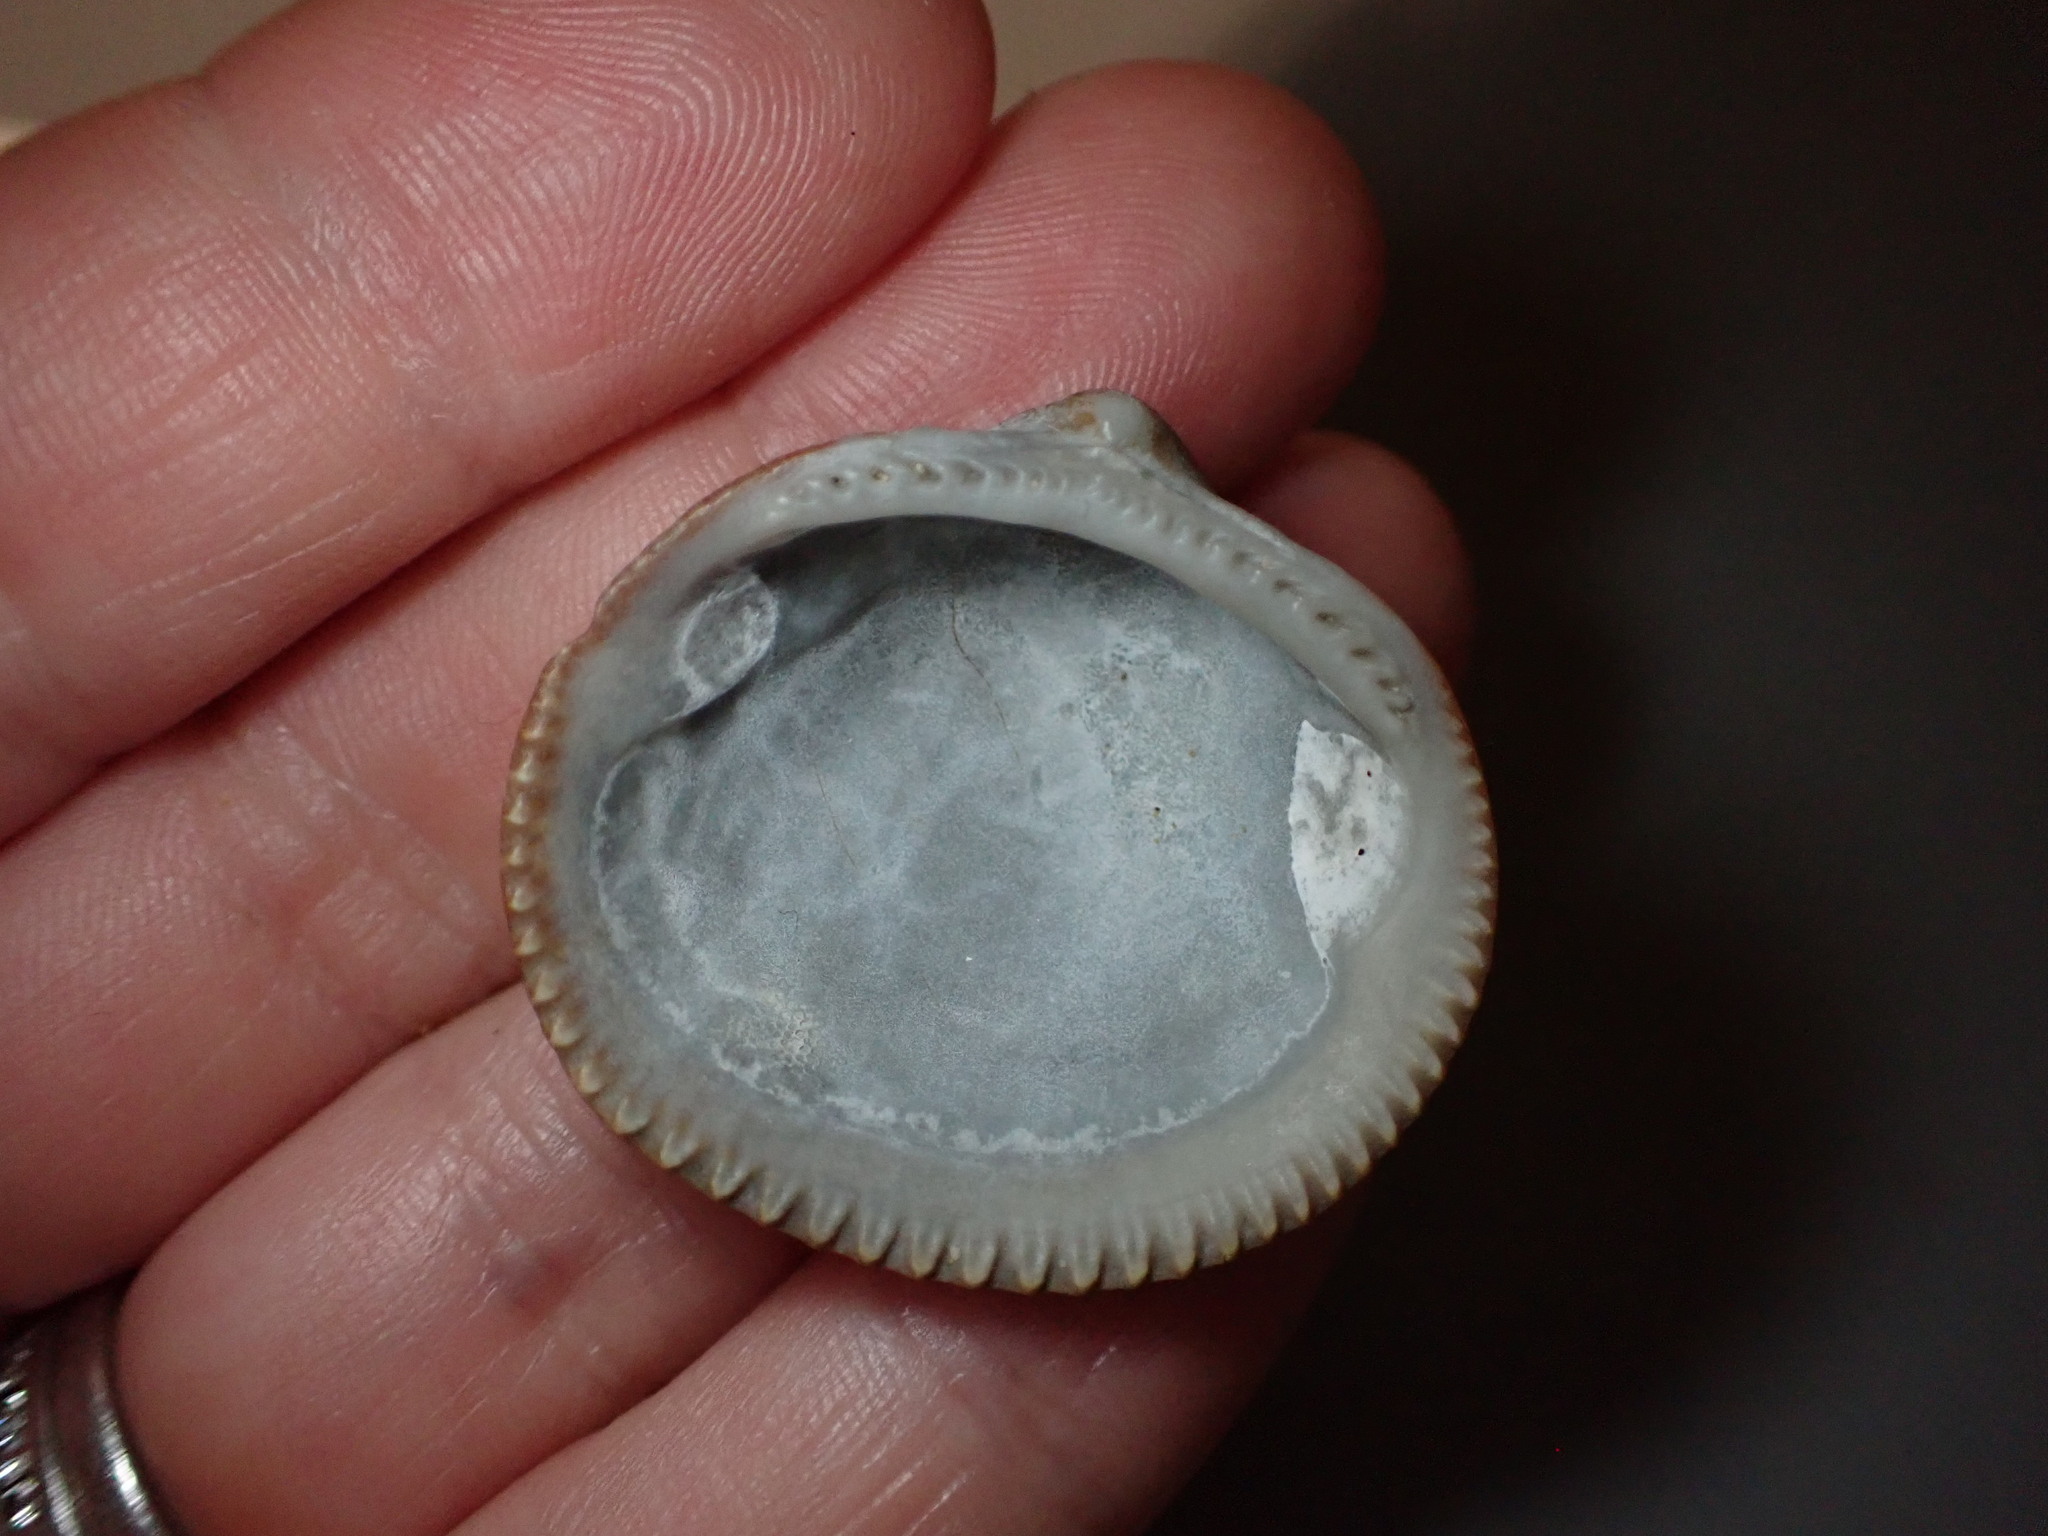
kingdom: Animalia
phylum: Mollusca
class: Bivalvia
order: Arcida
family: Glycymerididae
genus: Glycymeris
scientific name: Glycymeris nummaria
